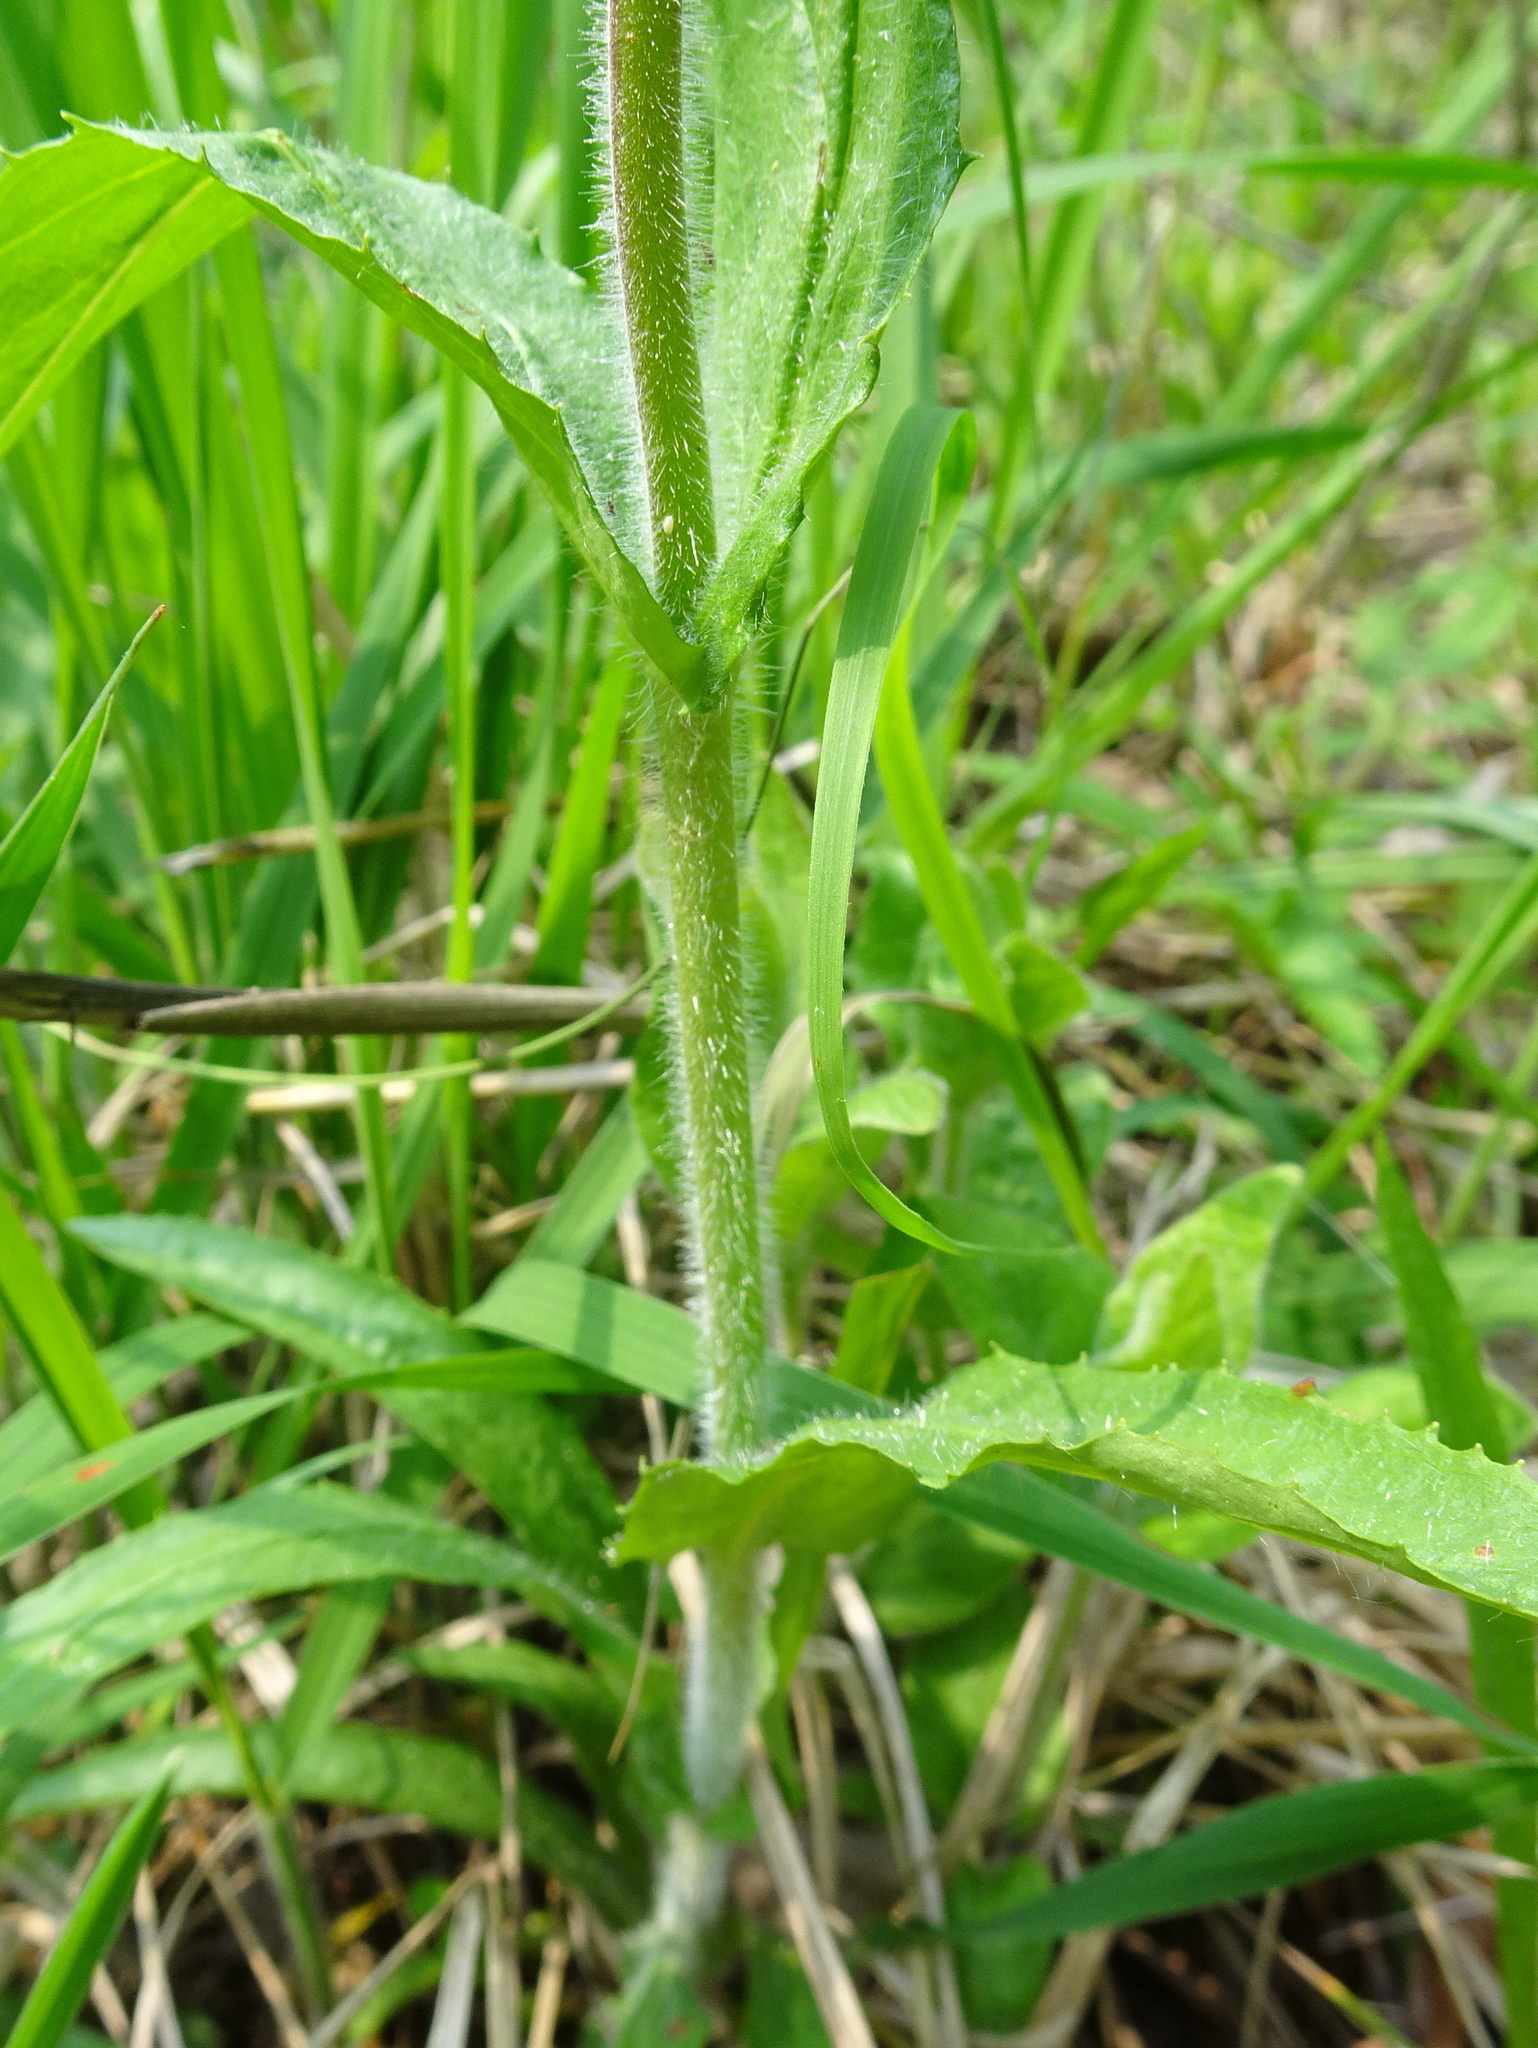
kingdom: Plantae
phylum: Tracheophyta
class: Magnoliopsida
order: Lamiales
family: Plantaginaceae
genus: Penstemon
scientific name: Penstemon hirsutus
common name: Hairy beardtongue
